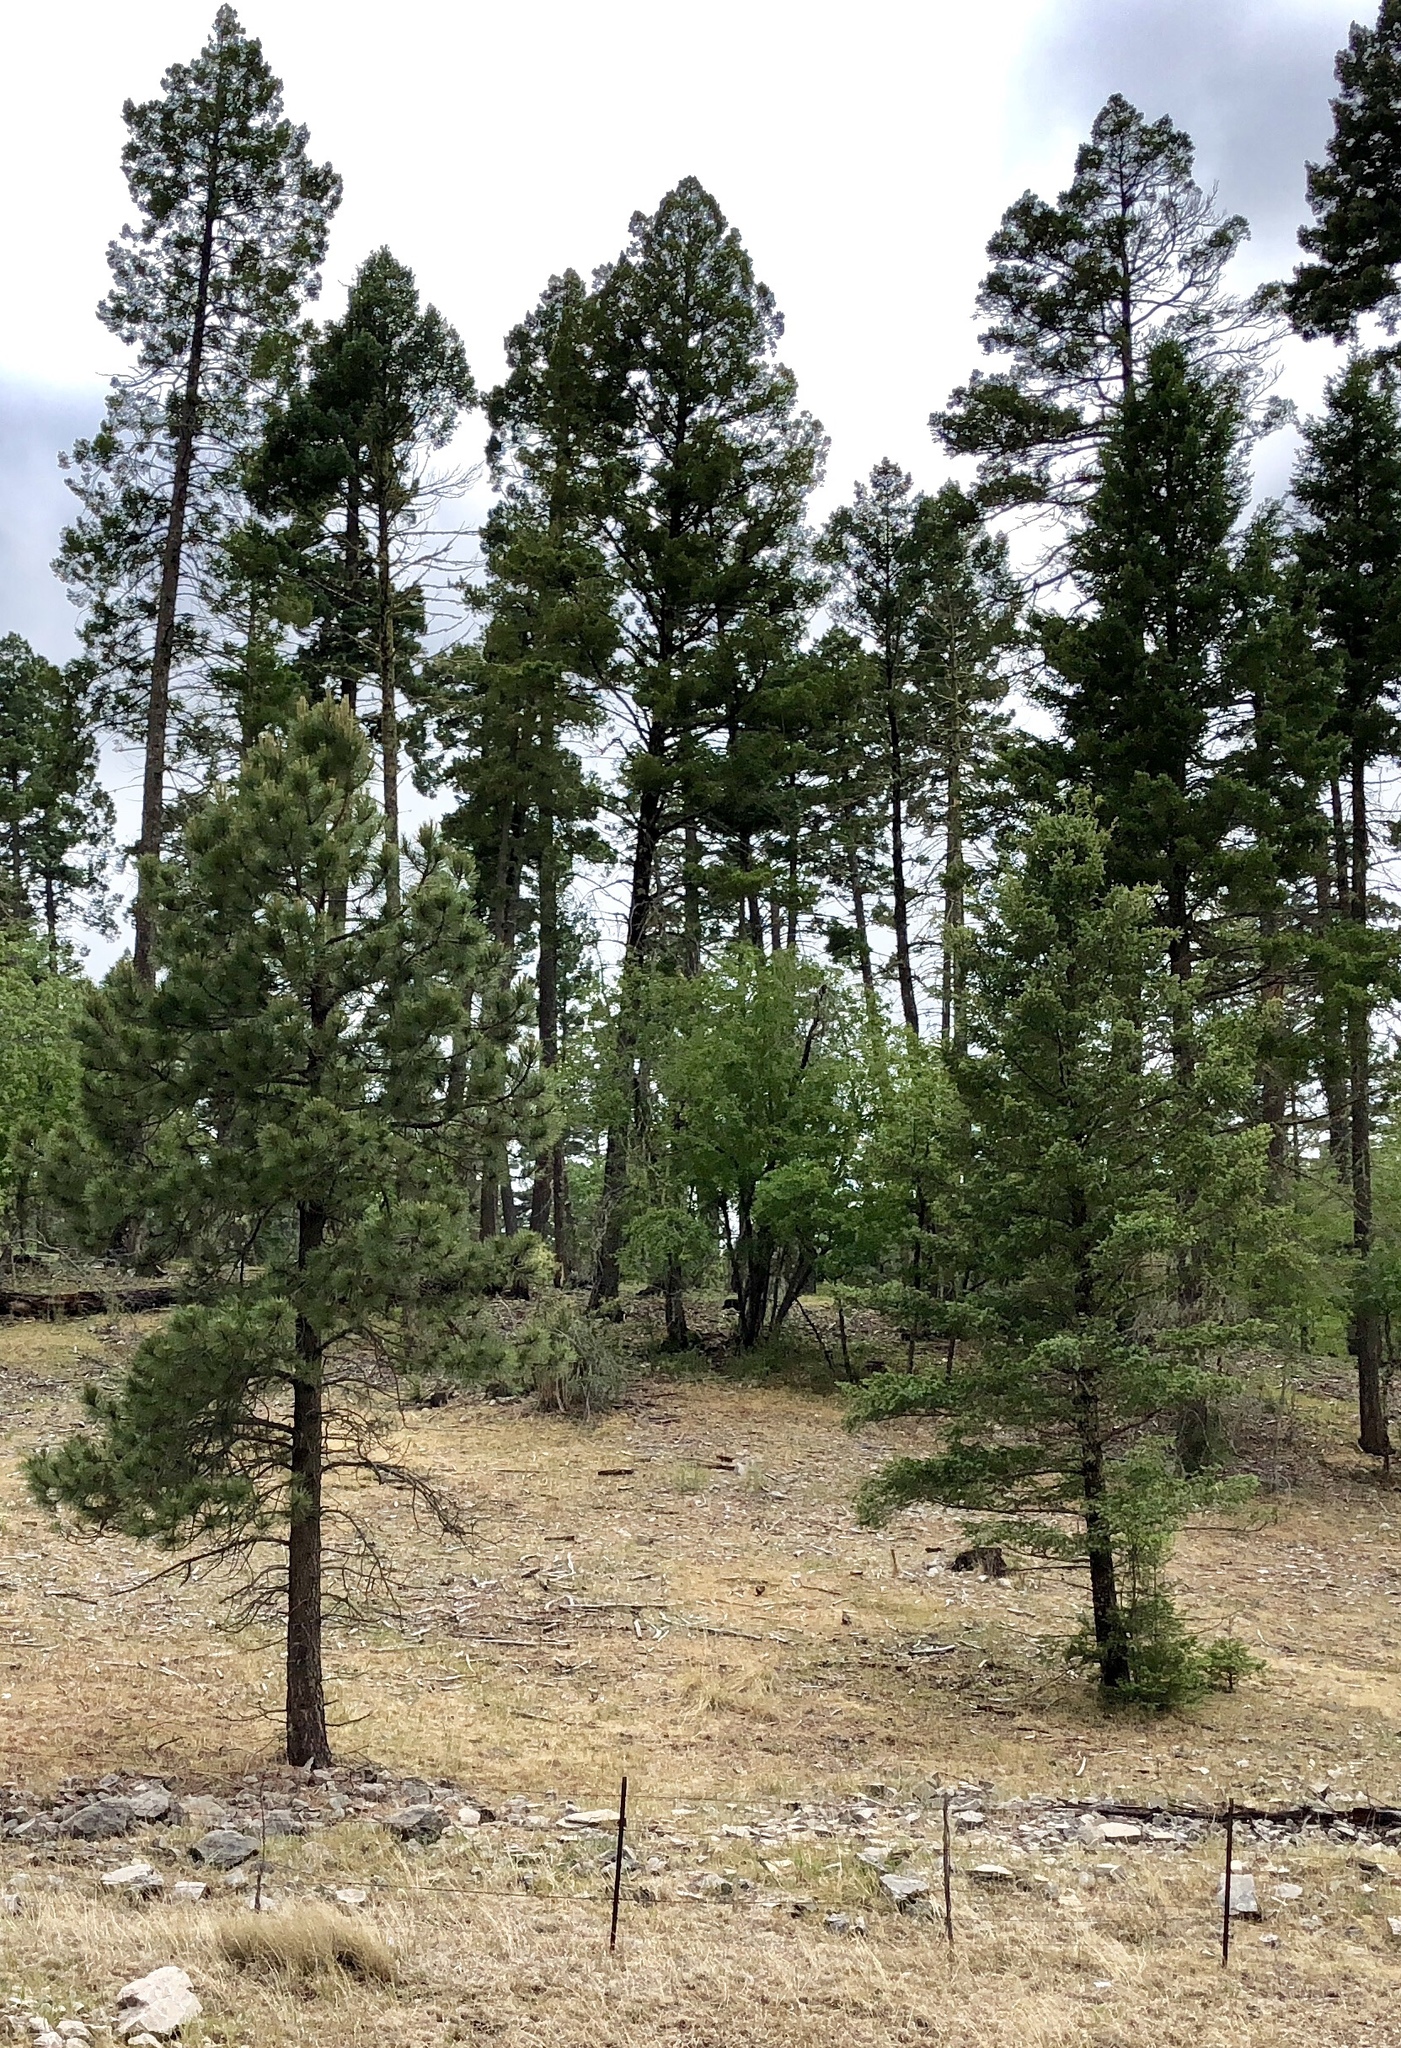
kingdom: Plantae
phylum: Tracheophyta
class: Pinopsida
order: Pinales
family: Pinaceae
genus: Pinus
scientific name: Pinus ponderosa
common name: Western yellow-pine
